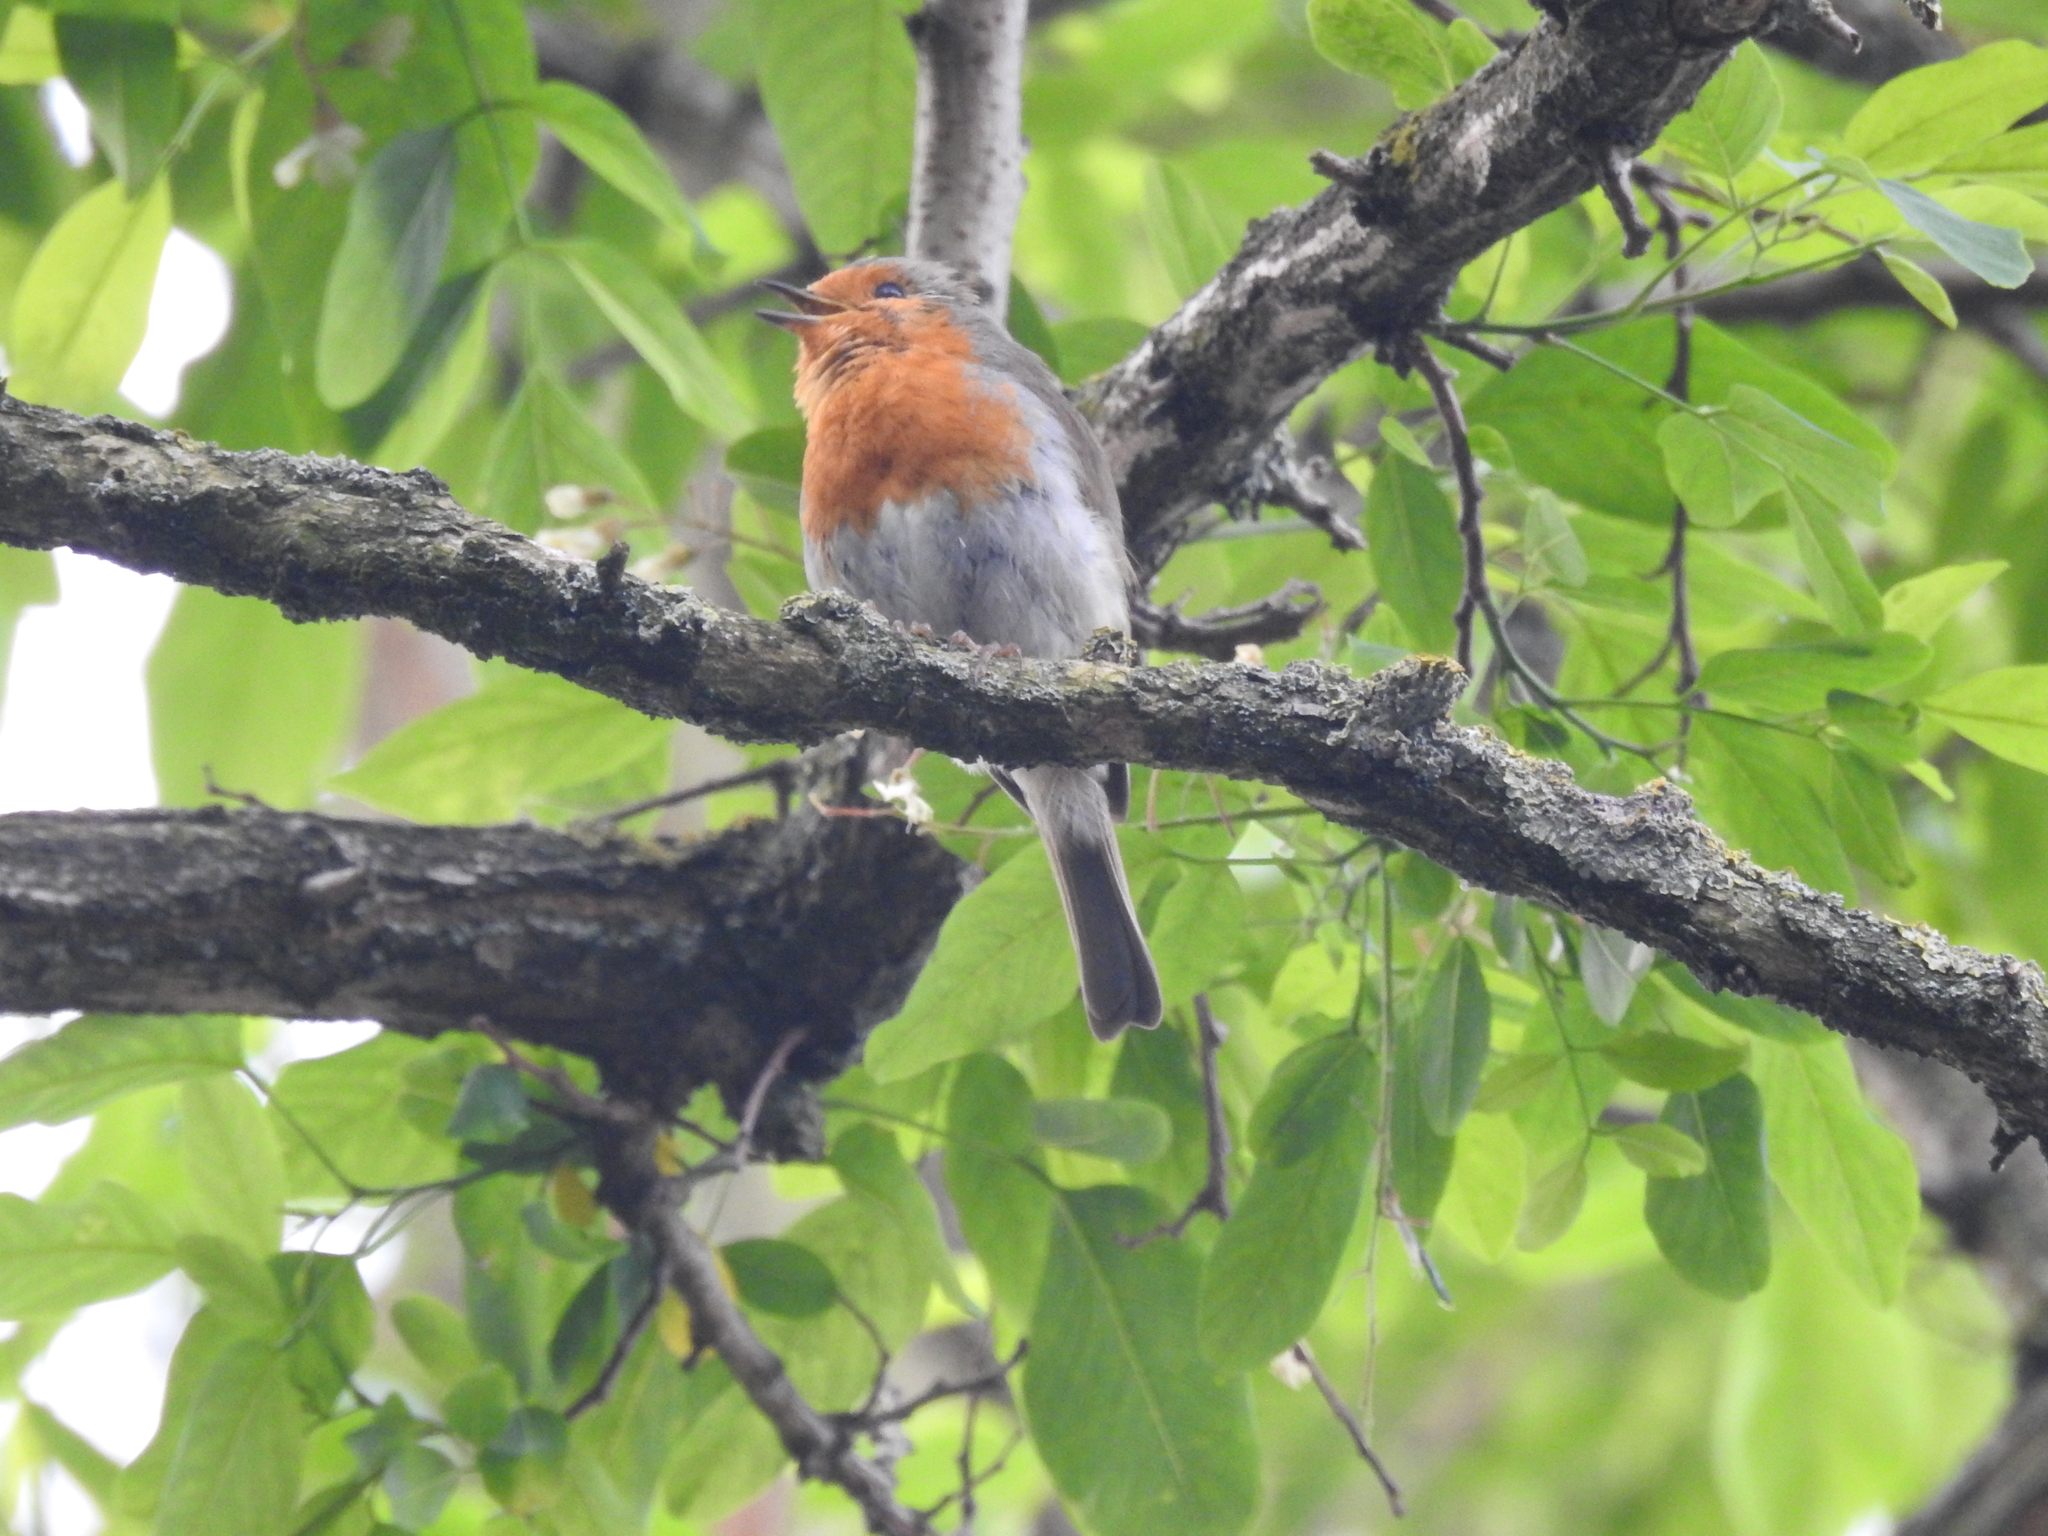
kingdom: Animalia
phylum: Chordata
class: Aves
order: Passeriformes
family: Muscicapidae
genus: Erithacus
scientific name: Erithacus rubecula
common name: European robin
